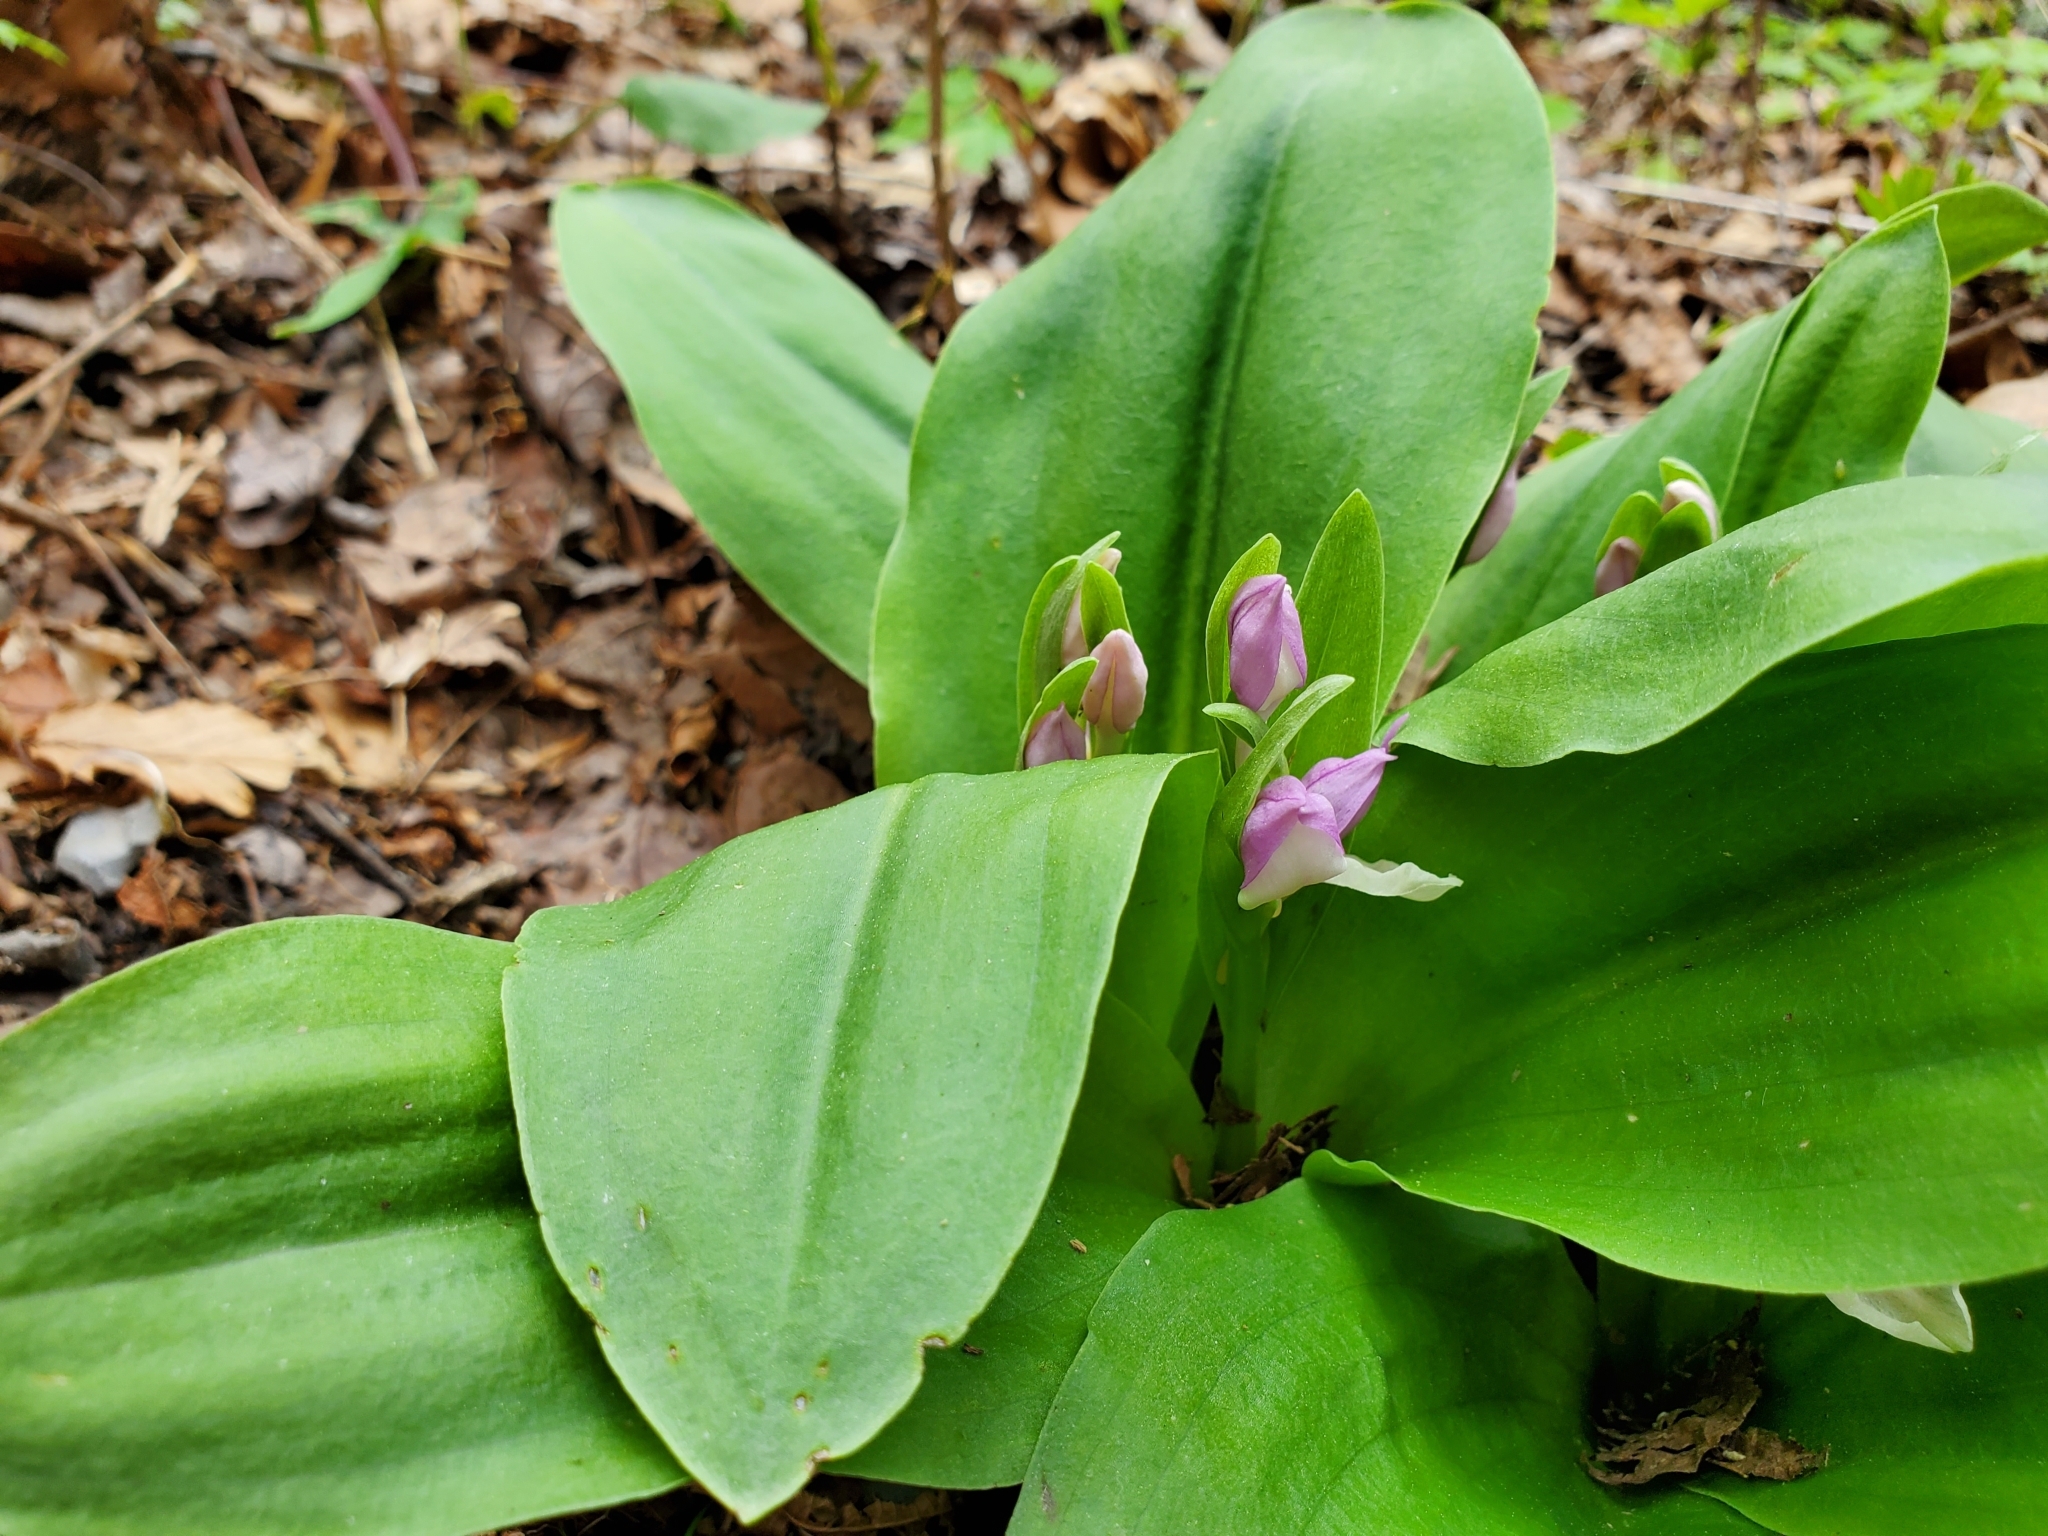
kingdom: Plantae
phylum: Tracheophyta
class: Liliopsida
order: Asparagales
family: Orchidaceae
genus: Galearis
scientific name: Galearis spectabilis
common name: Purple-hooded orchis
